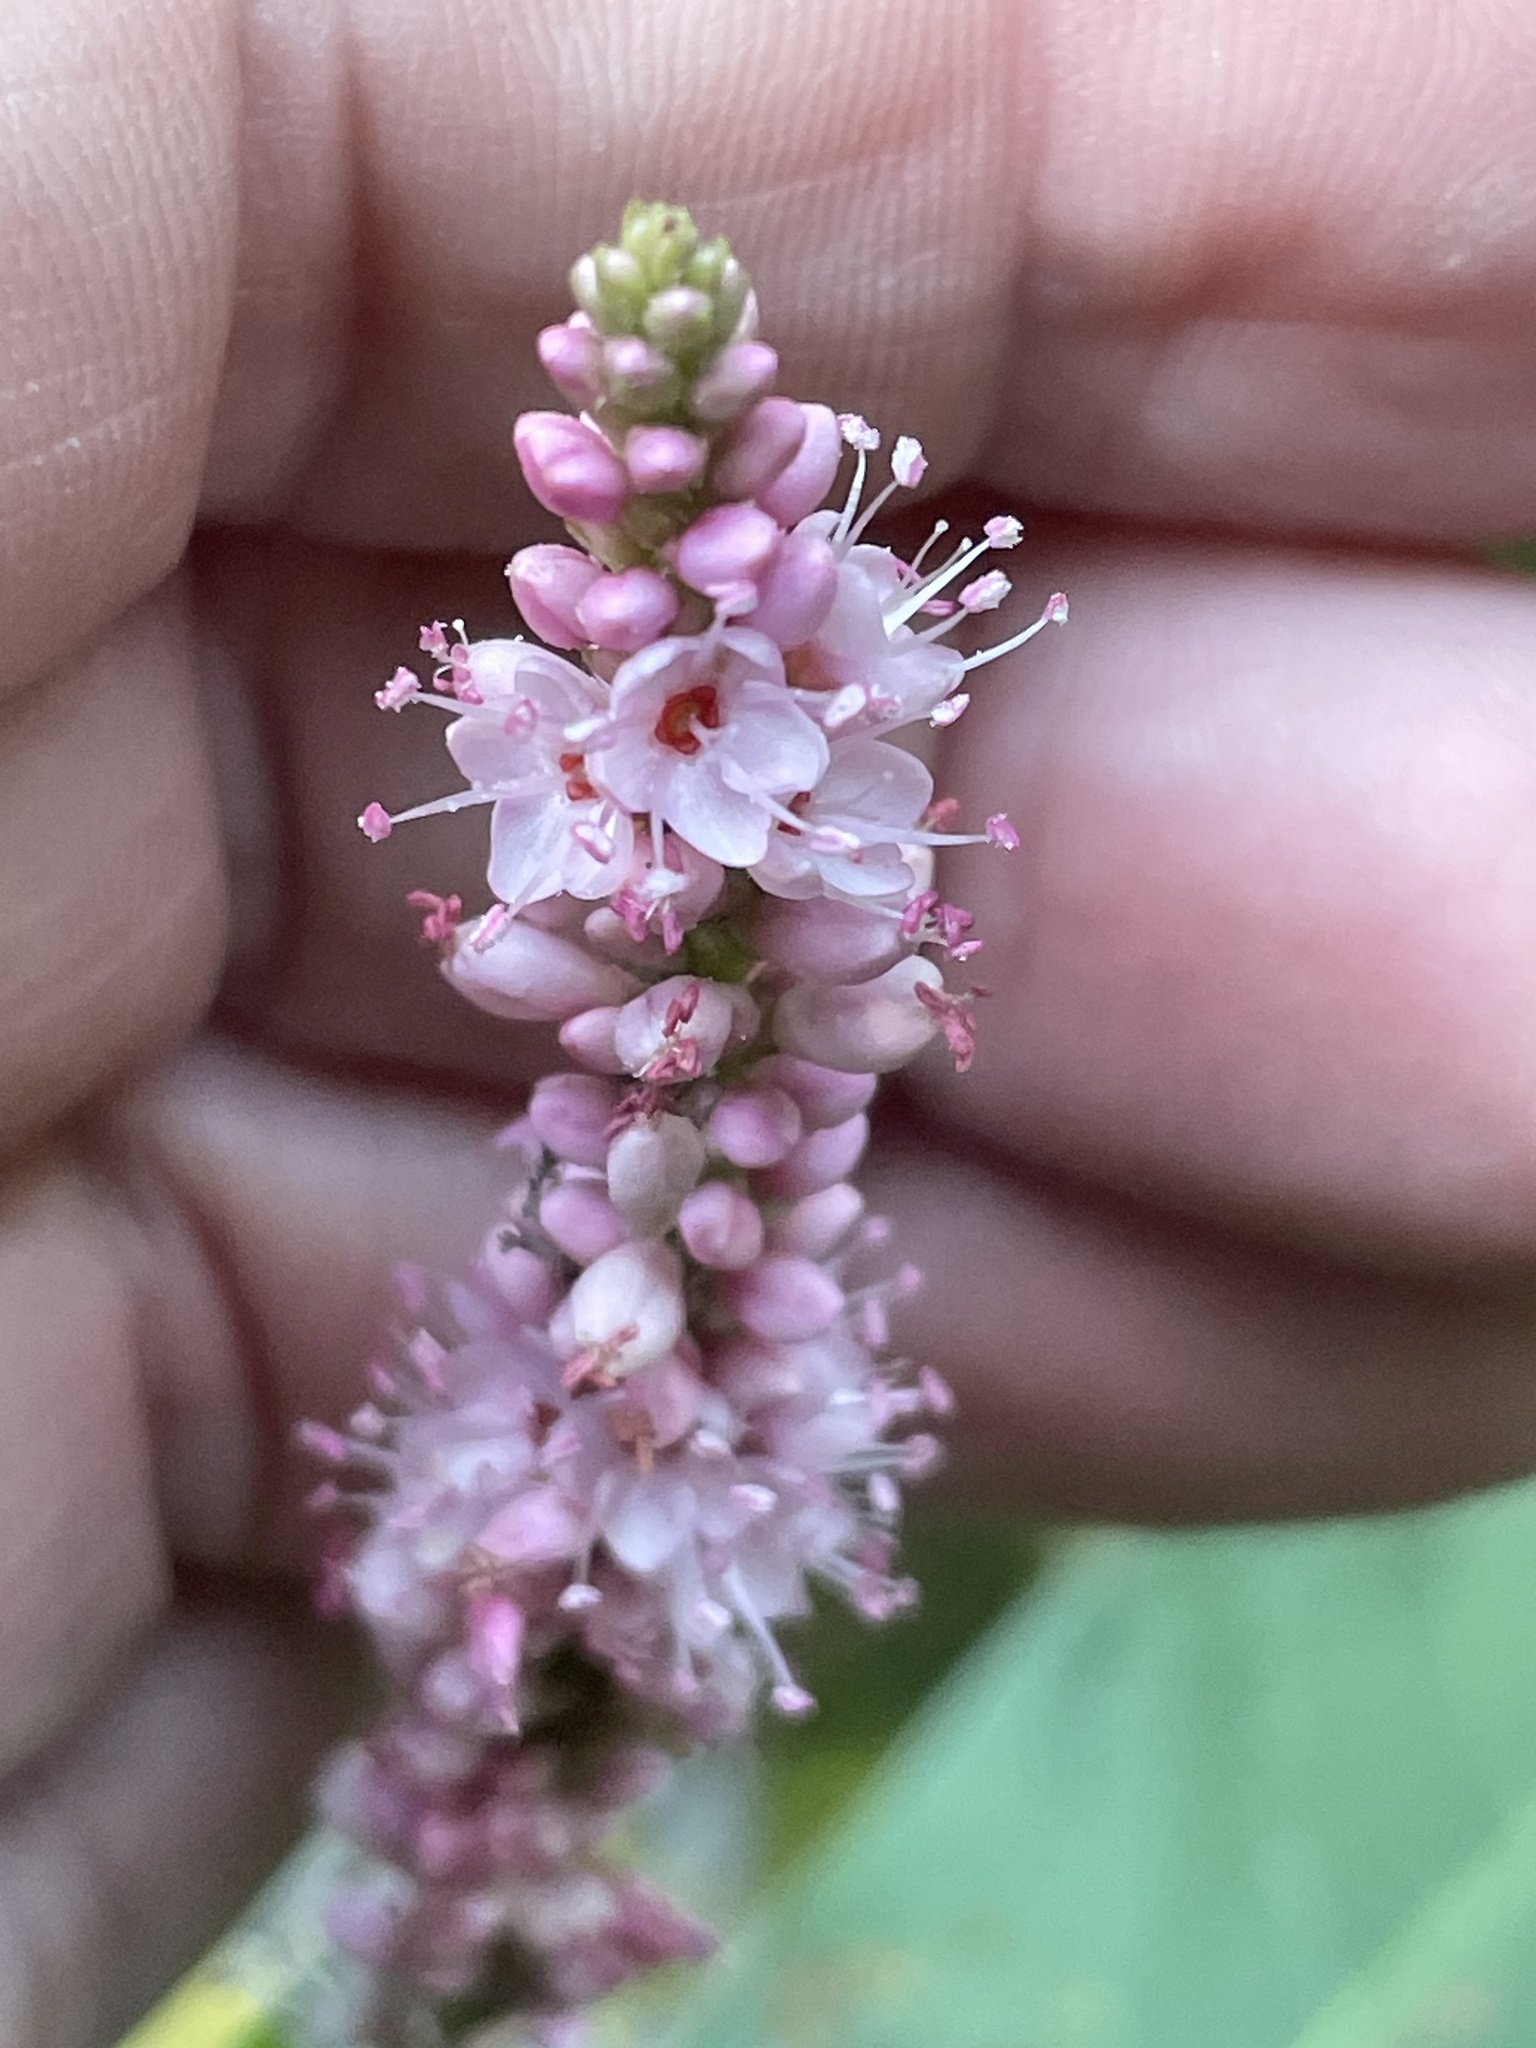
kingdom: Plantae
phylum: Tracheophyta
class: Magnoliopsida
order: Caryophyllales
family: Polygonaceae
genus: Persicaria
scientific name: Persicaria amphibia
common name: Amphibious bistort
